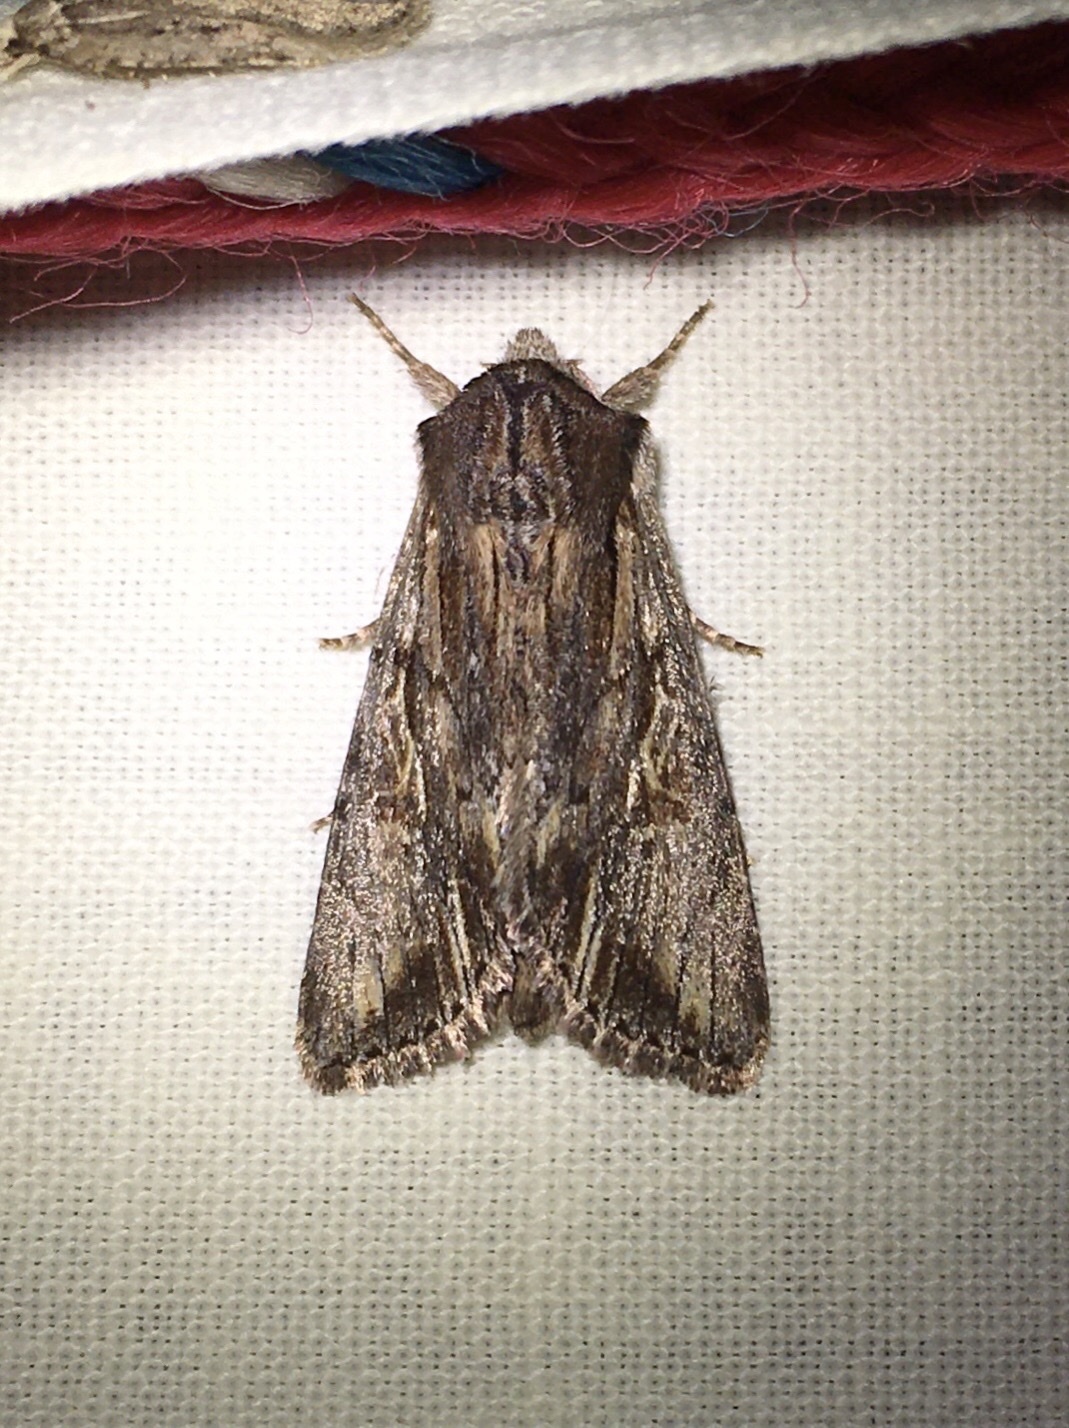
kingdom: Animalia
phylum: Arthropoda
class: Insecta
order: Lepidoptera
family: Noctuidae
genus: Achatia
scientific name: Achatia evicta
